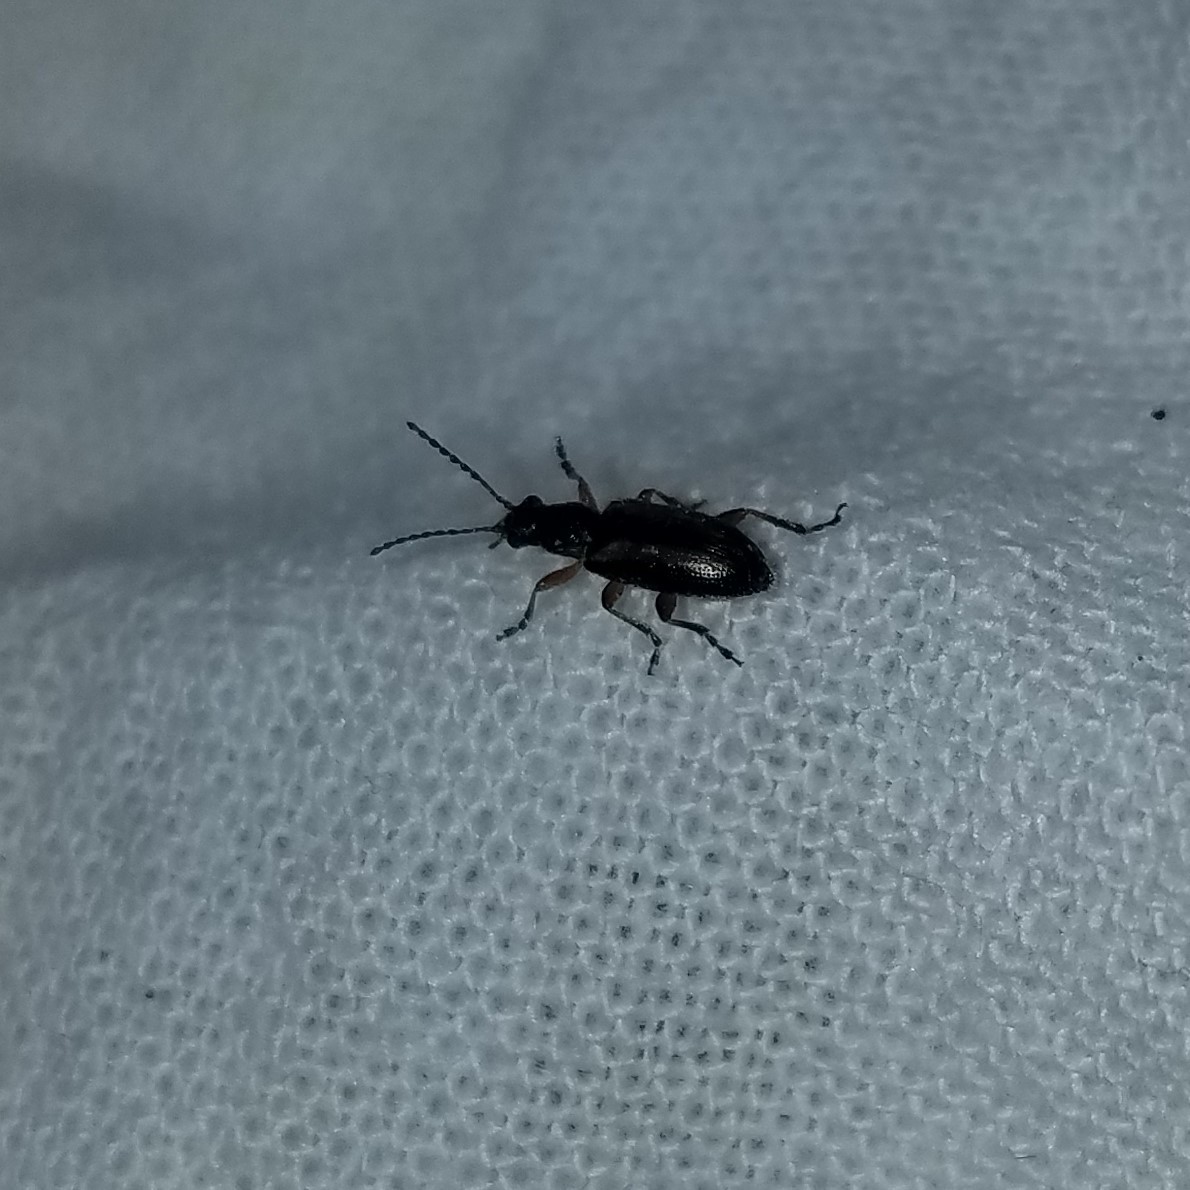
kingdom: Animalia
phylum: Arthropoda
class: Insecta
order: Coleoptera
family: Orsodacnidae
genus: Orsodacne
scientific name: Orsodacne atra
